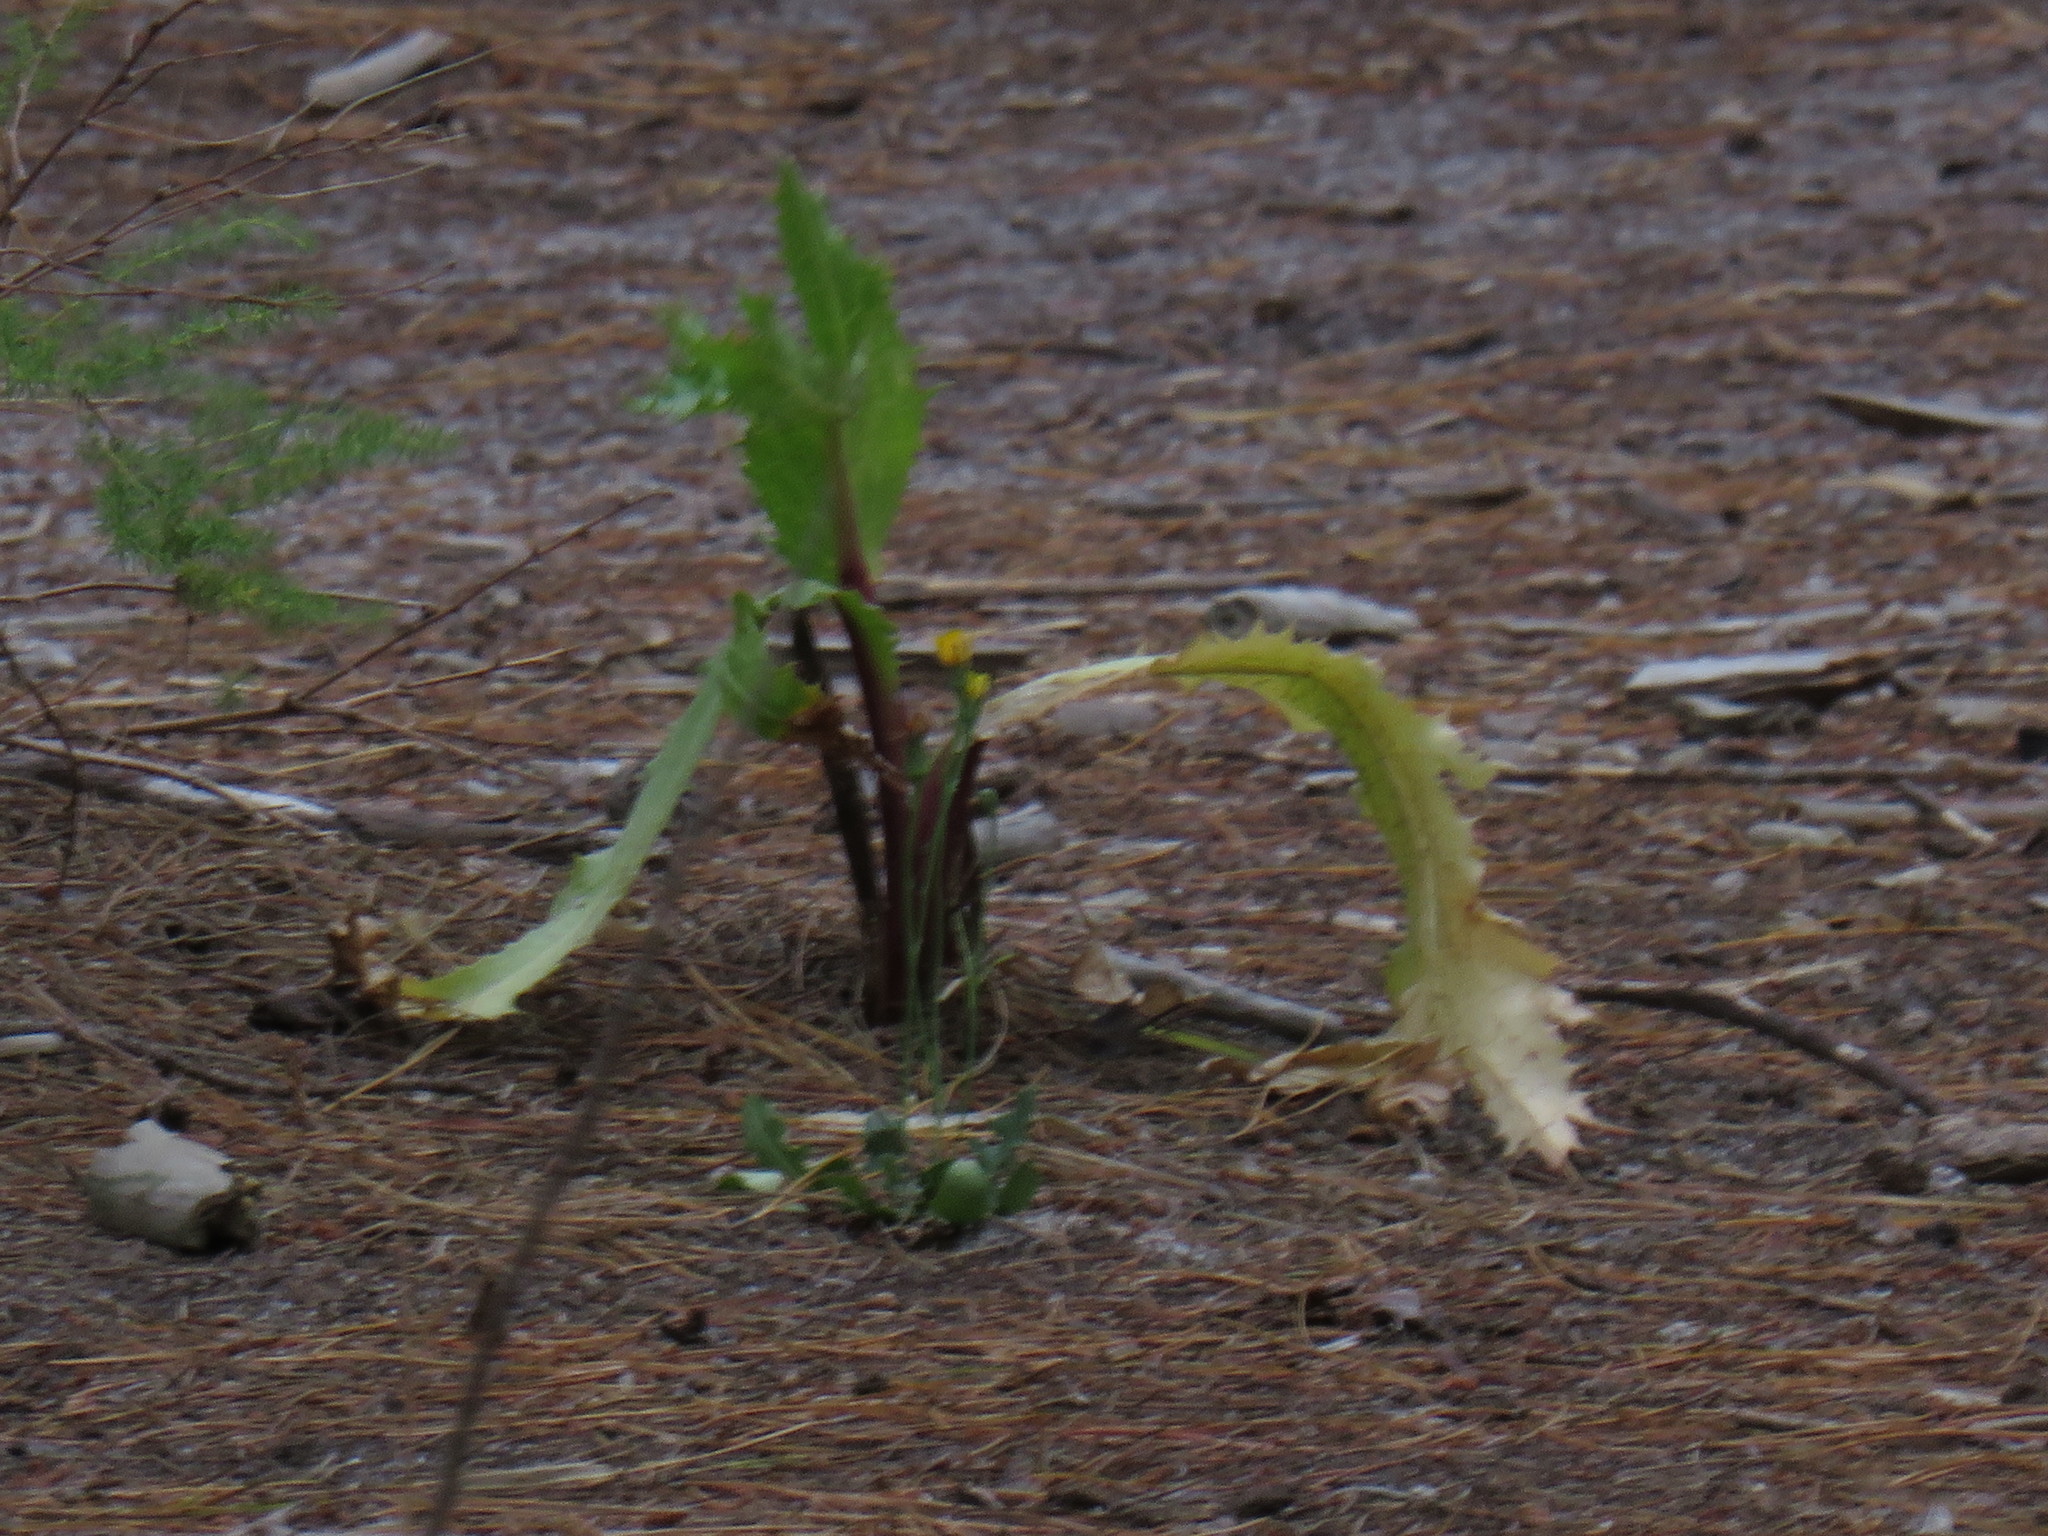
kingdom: Plantae
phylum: Tracheophyta
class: Magnoliopsida
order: Apiales
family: Apiaceae
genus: Lichtensteinia
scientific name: Lichtensteinia lacera
